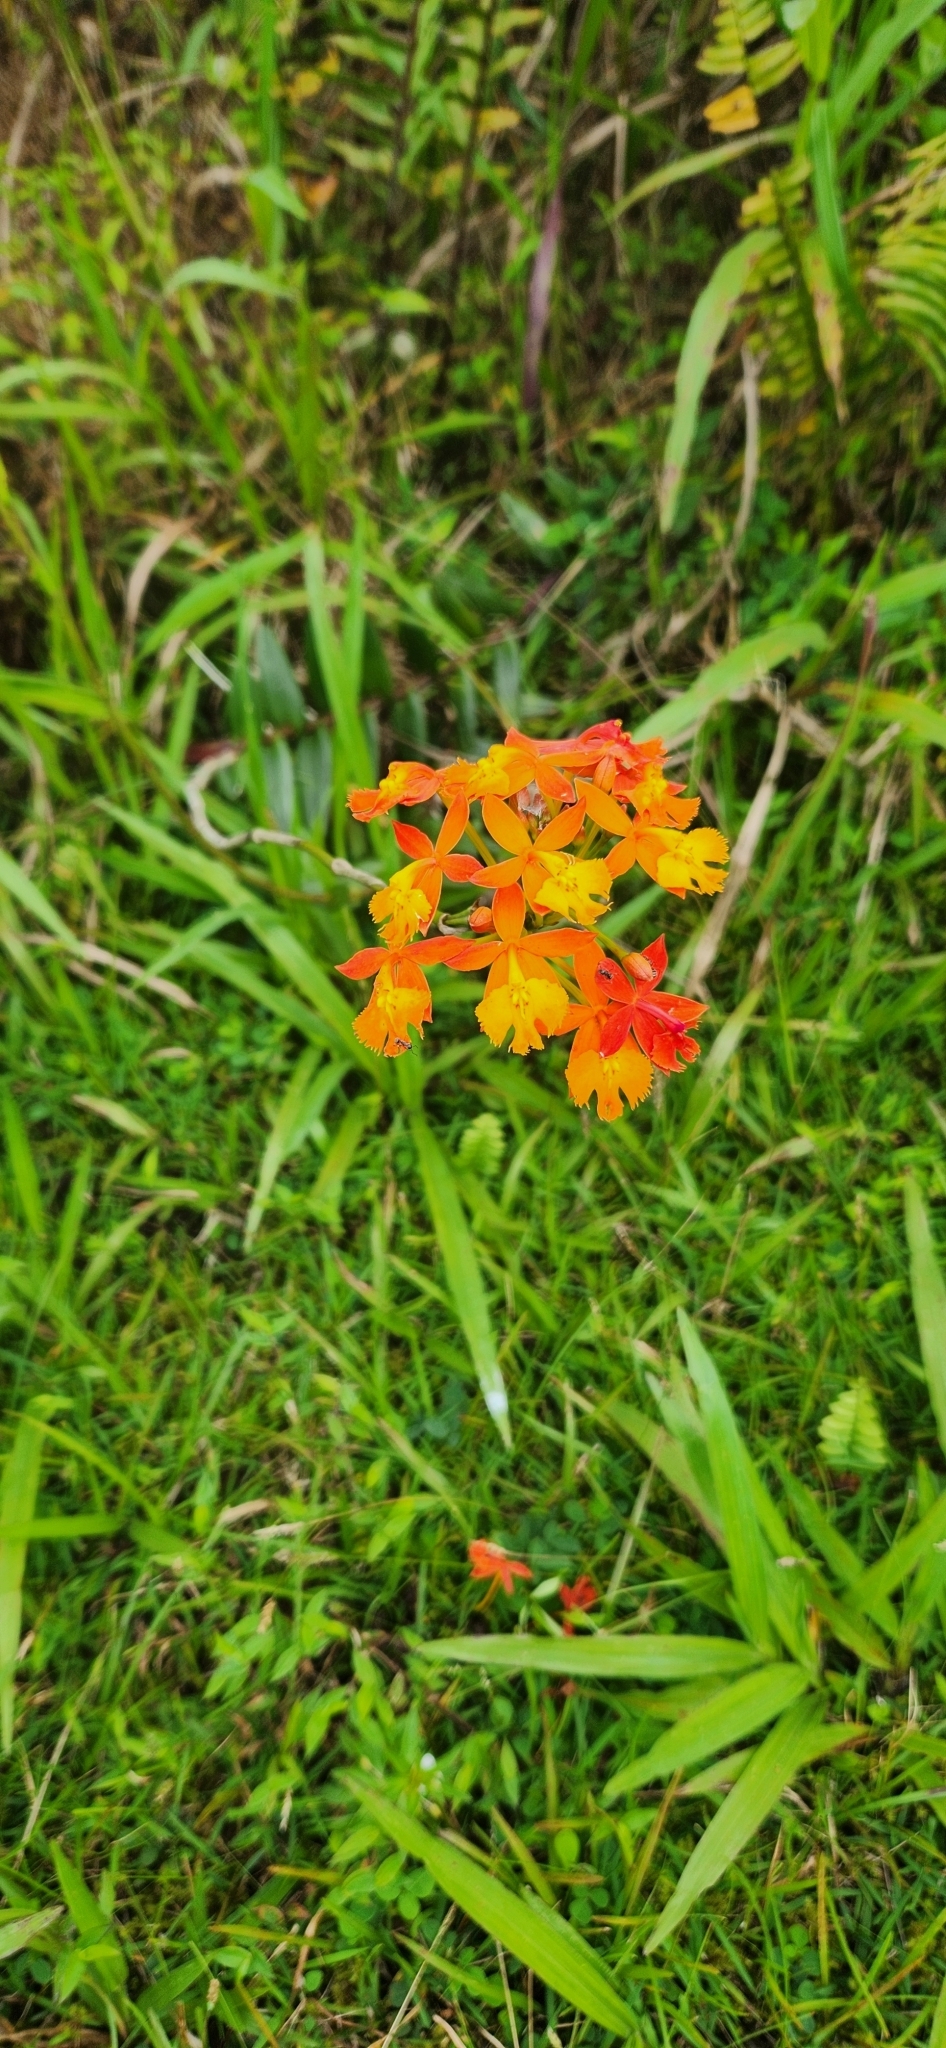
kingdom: Plantae
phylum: Tracheophyta
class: Liliopsida
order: Asparagales
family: Orchidaceae
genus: Epidendrum
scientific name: Epidendrum radicans
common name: Fire star orchid
